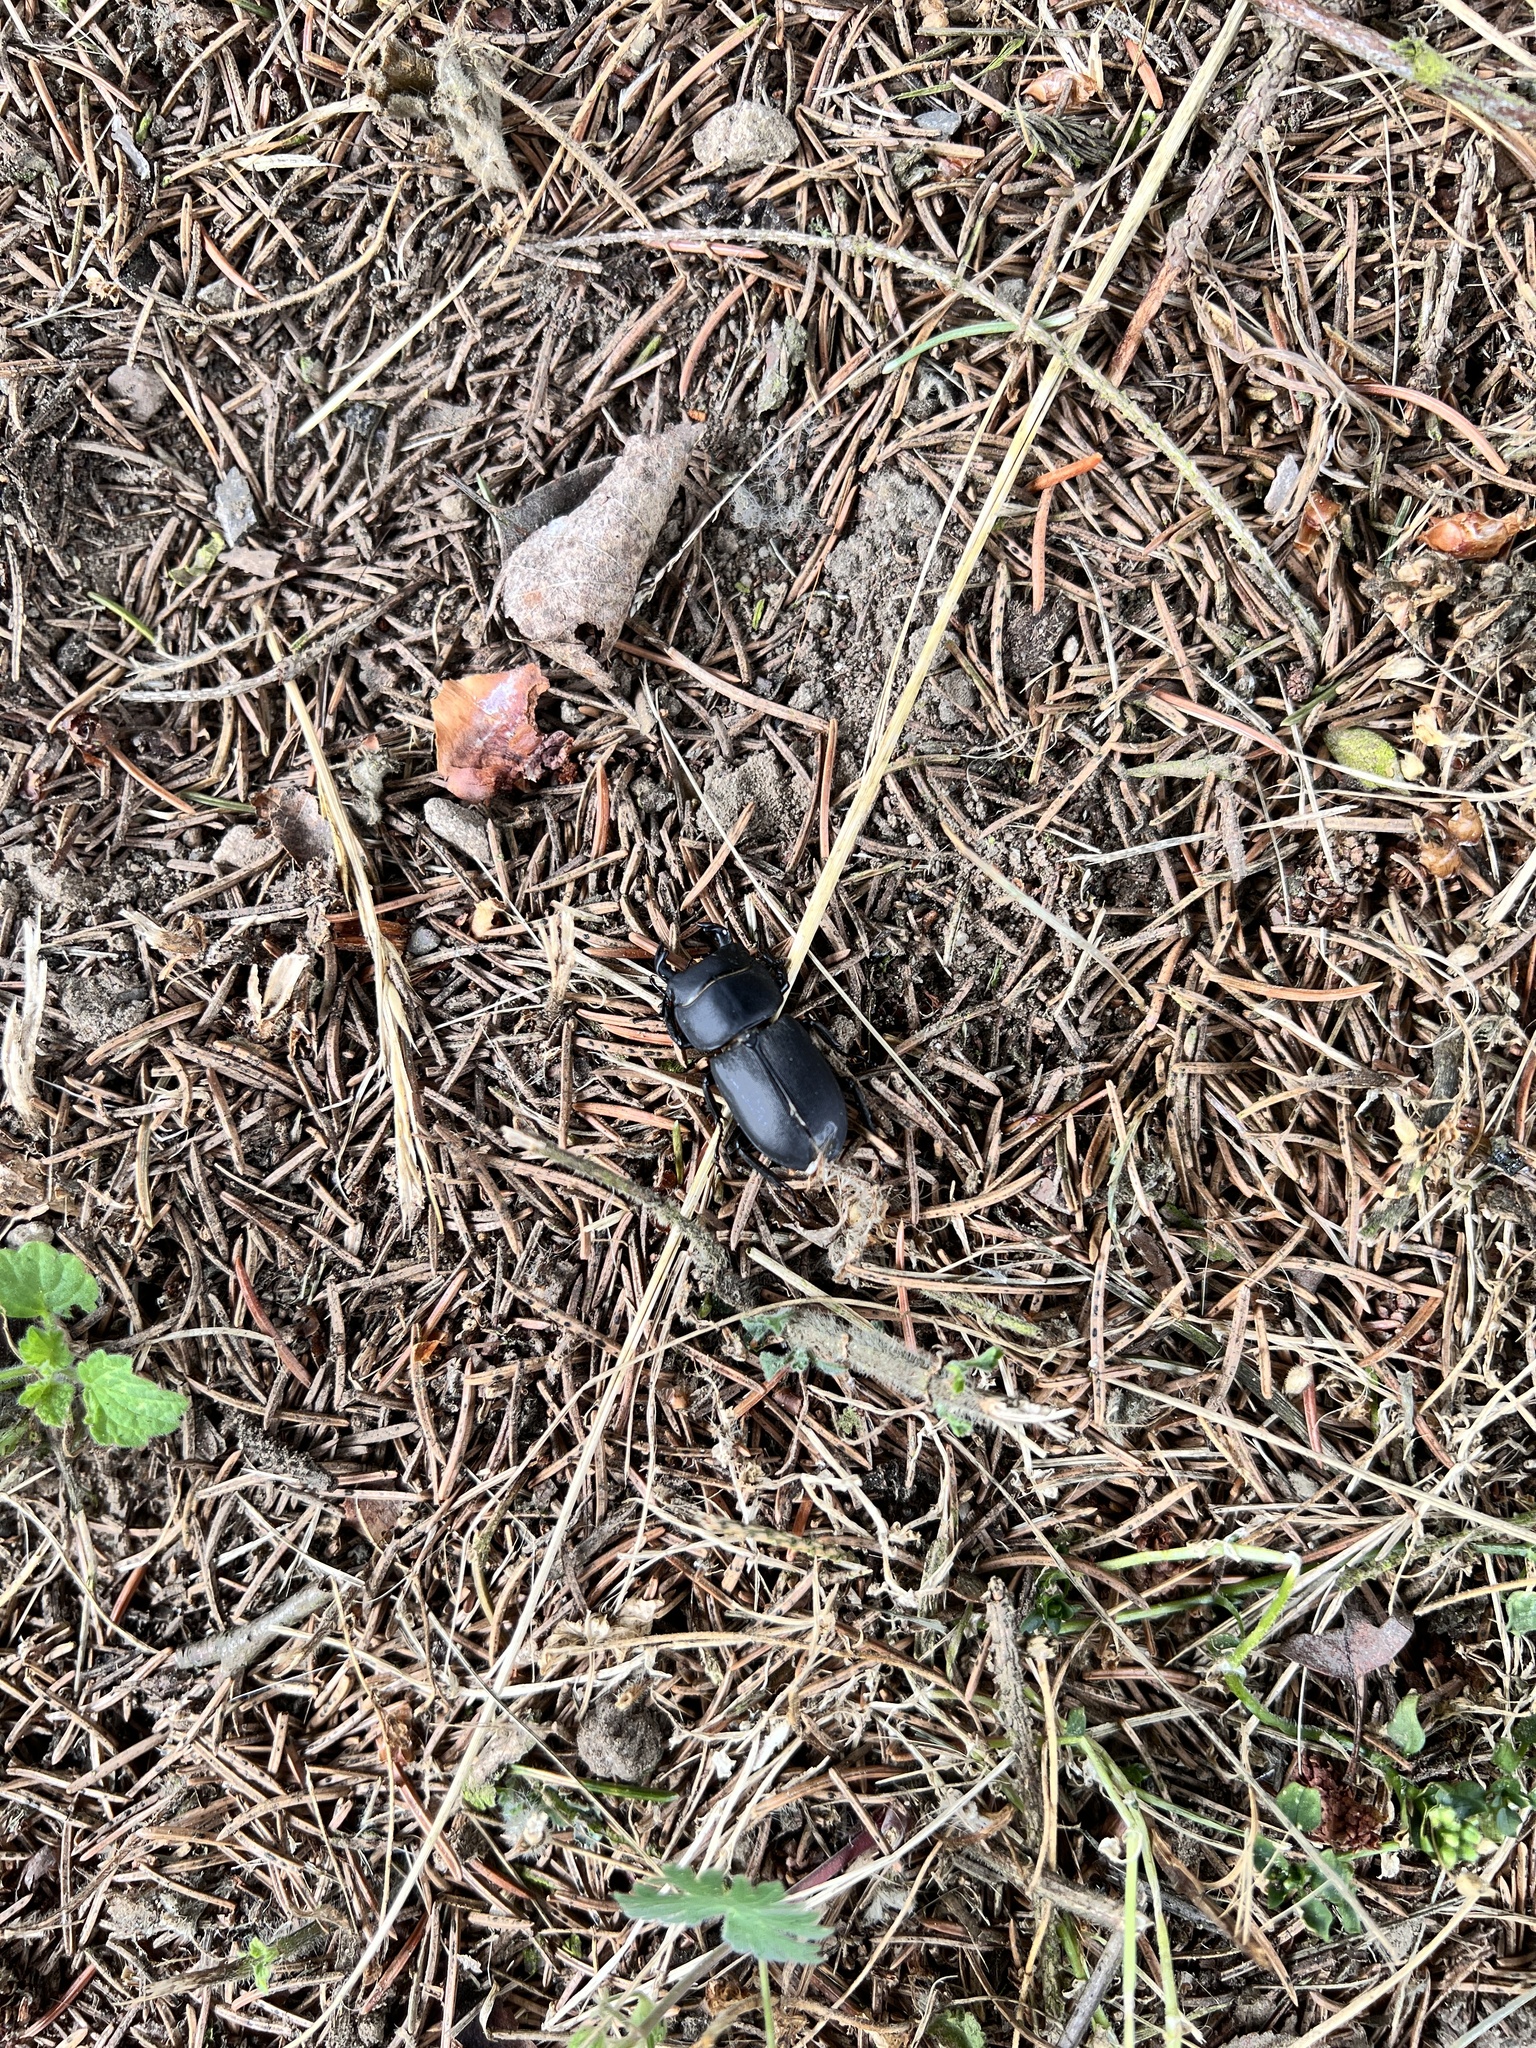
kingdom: Animalia
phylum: Arthropoda
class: Insecta
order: Coleoptera
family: Lucanidae
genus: Dorcus
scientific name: Dorcus parallelipipedus
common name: Lesser stag beetle
